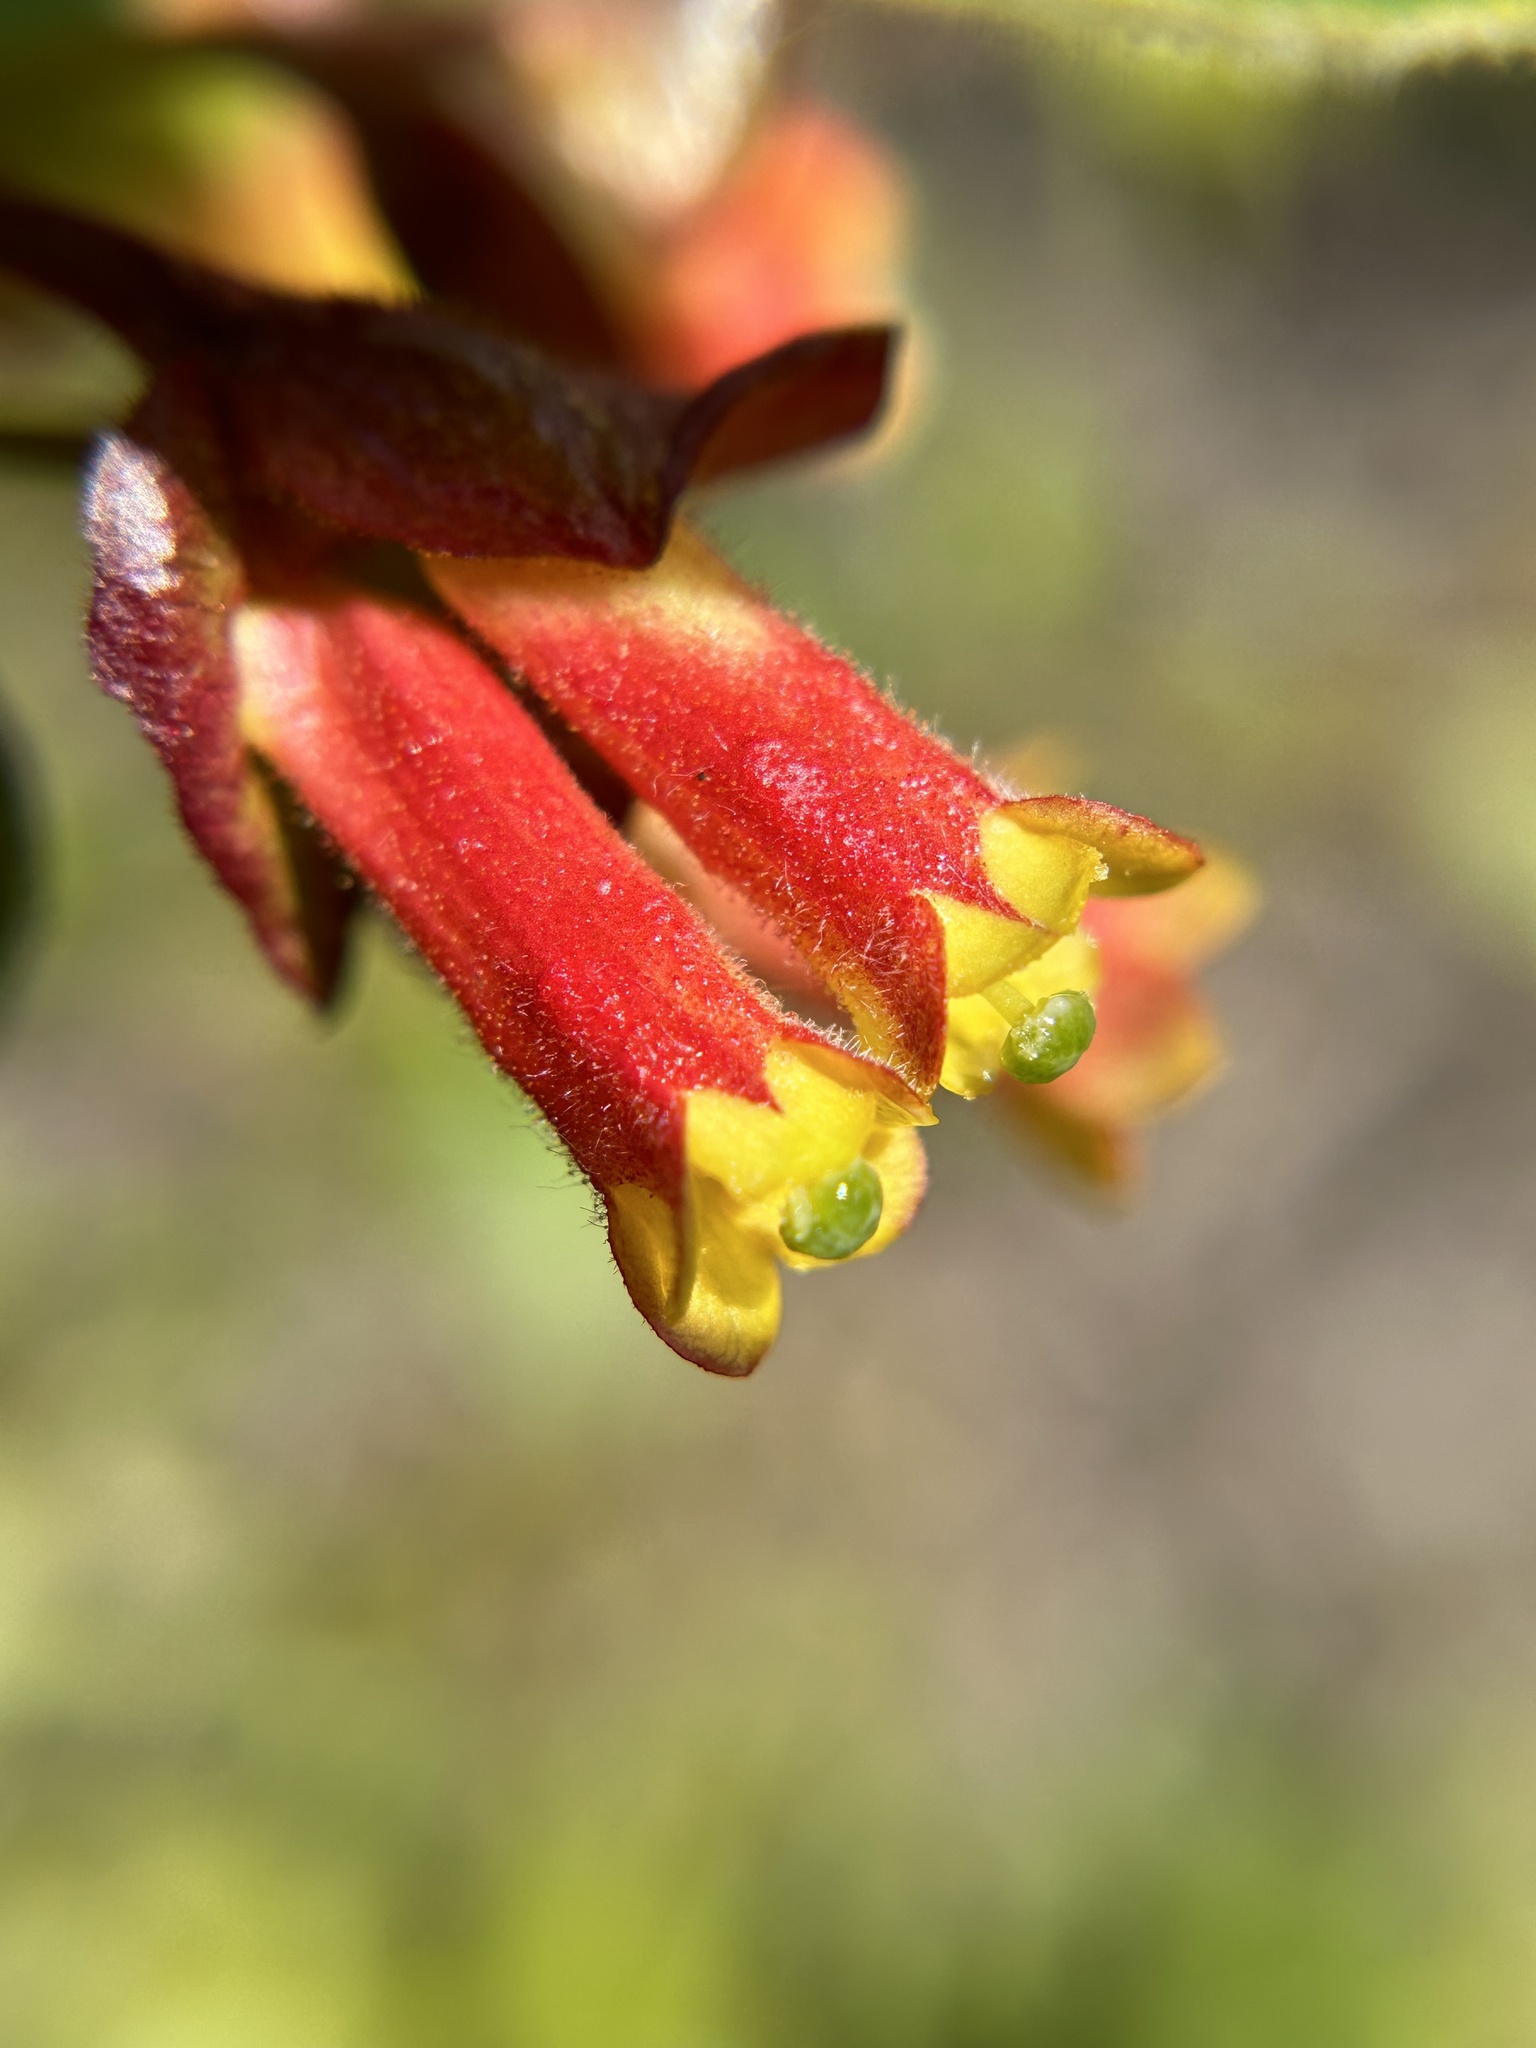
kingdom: Plantae
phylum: Tracheophyta
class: Magnoliopsida
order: Dipsacales
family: Caprifoliaceae
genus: Lonicera
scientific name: Lonicera involucrata
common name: Californian honeysuckle
